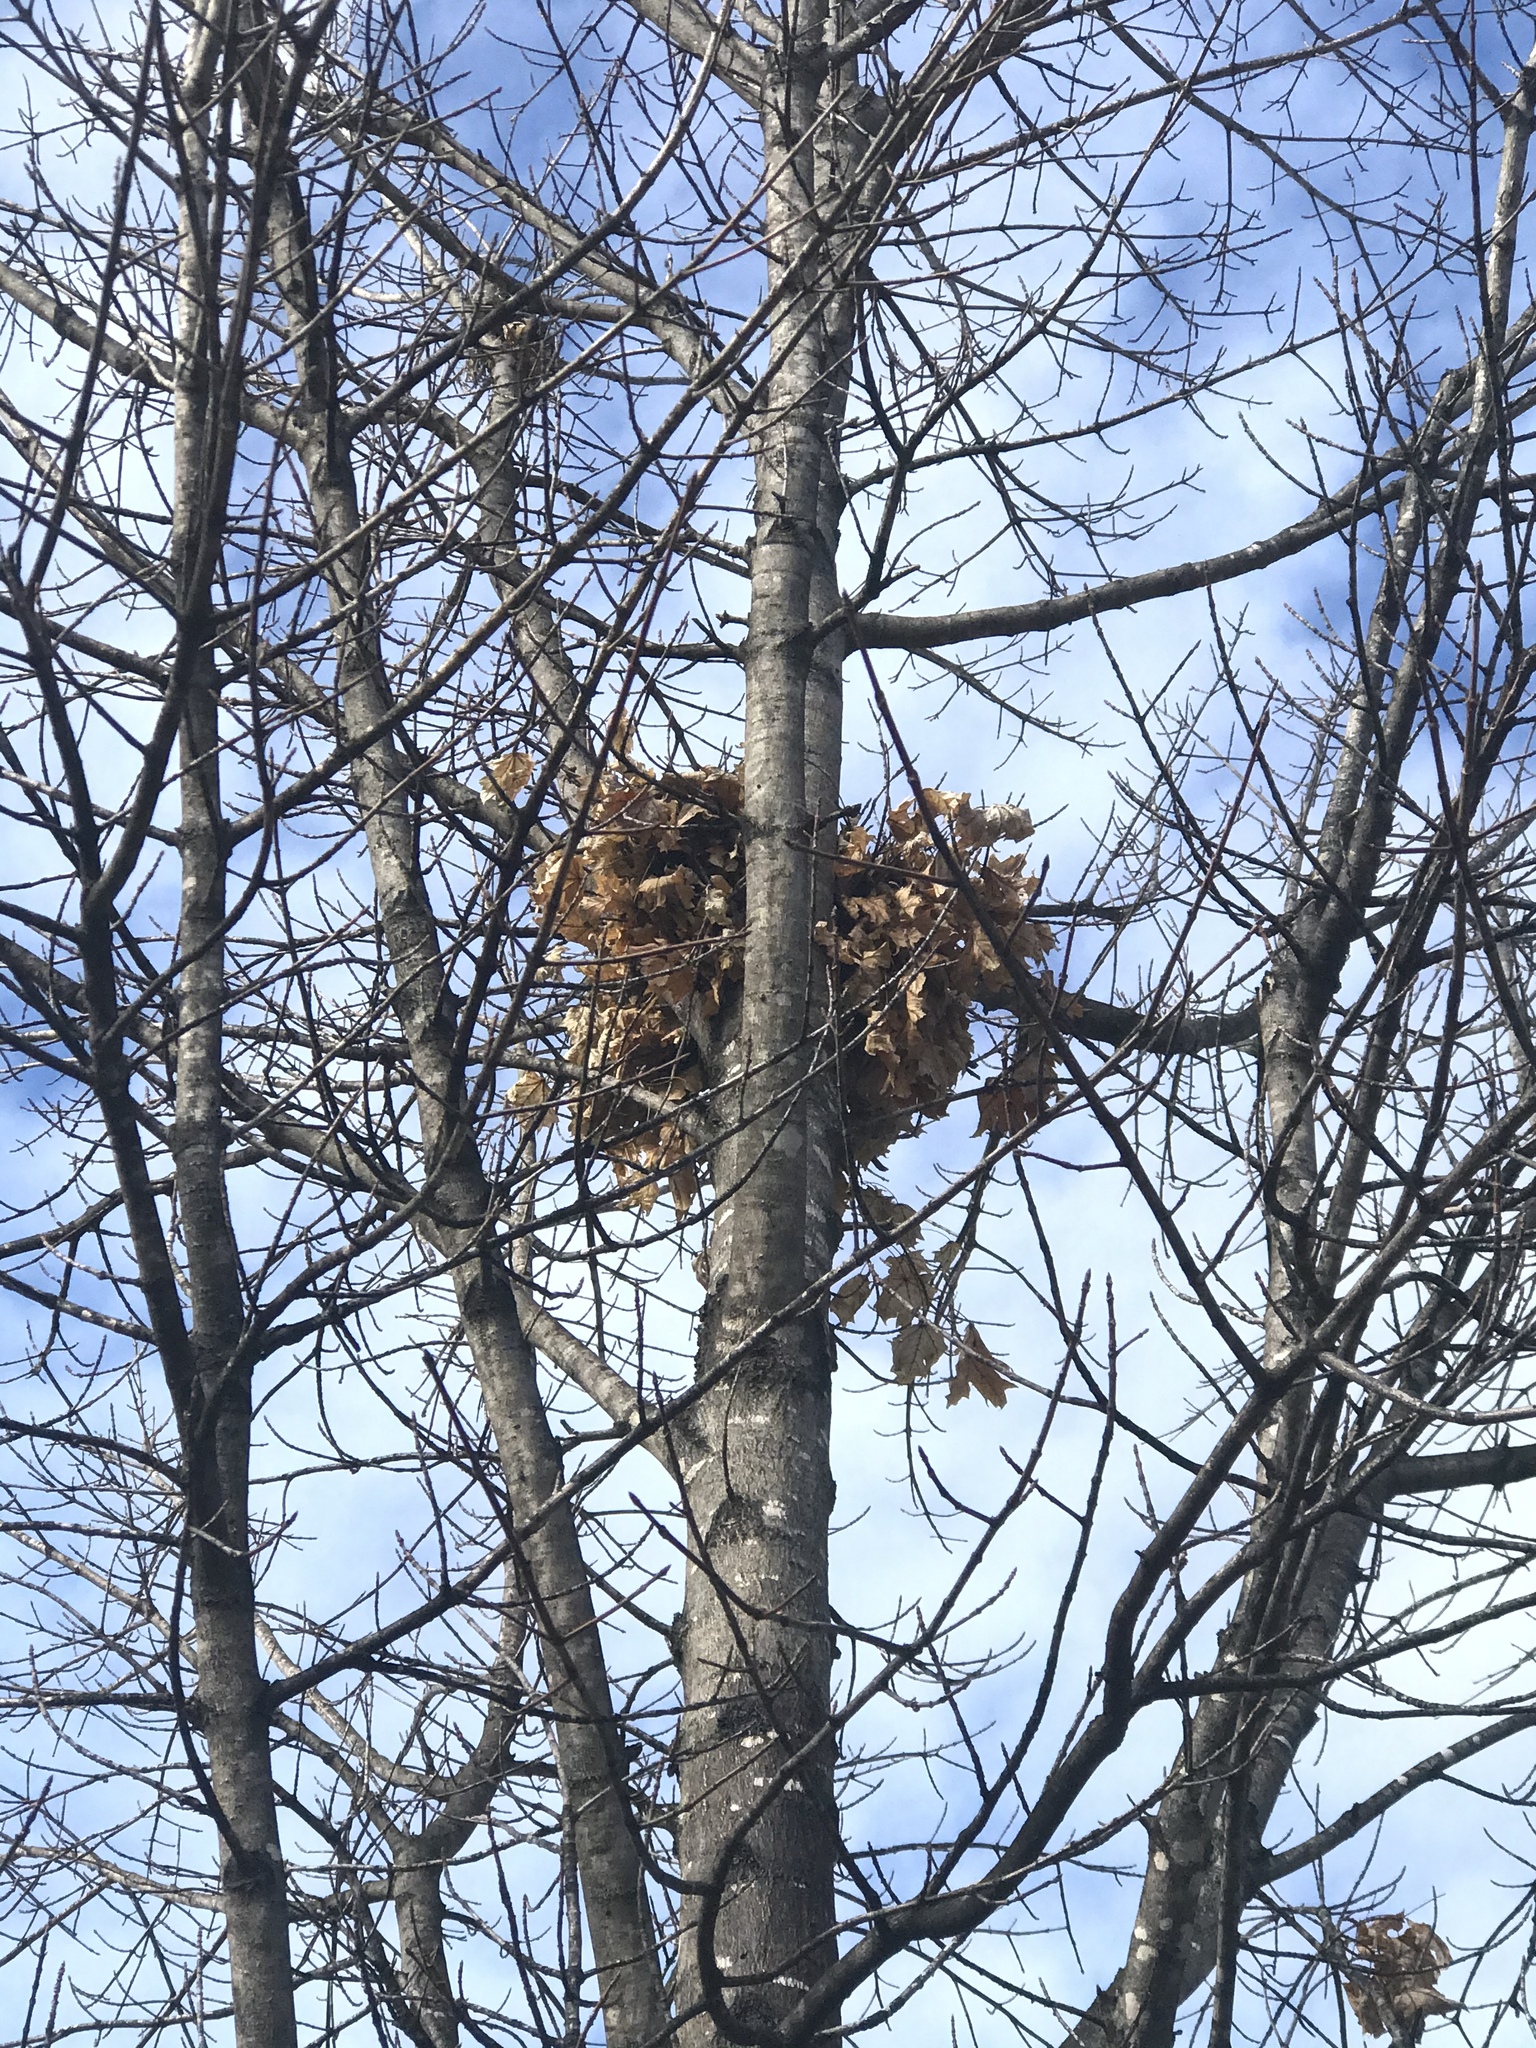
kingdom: Animalia
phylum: Chordata
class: Mammalia
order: Rodentia
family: Sciuridae
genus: Sciurus
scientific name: Sciurus carolinensis
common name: Eastern gray squirrel
